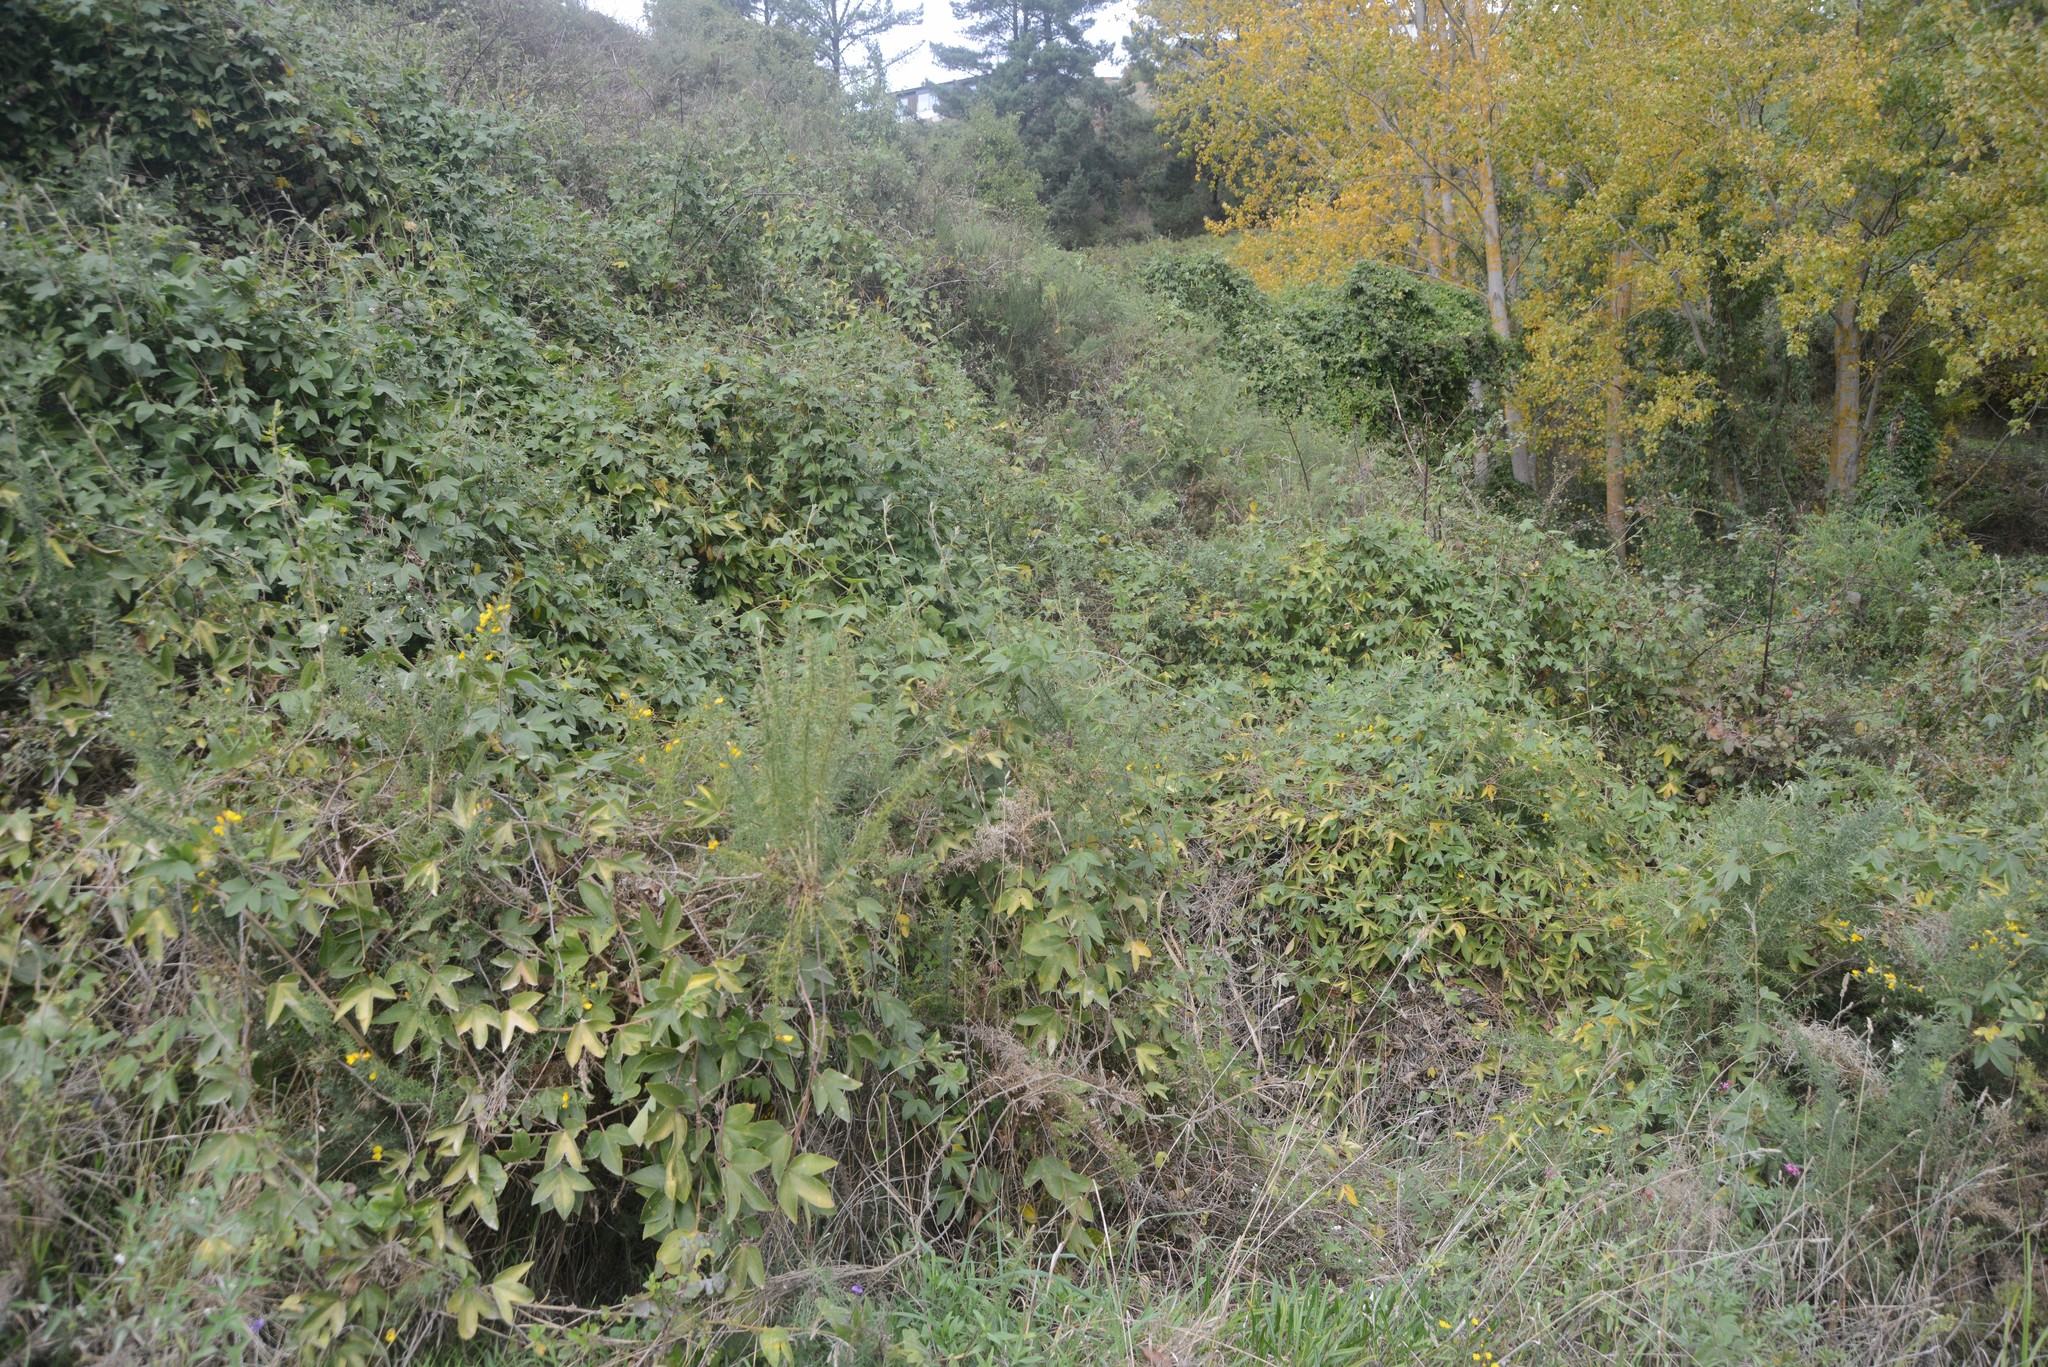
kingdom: Plantae
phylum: Tracheophyta
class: Magnoliopsida
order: Malpighiales
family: Passifloraceae
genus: Passiflora
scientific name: Passiflora tripartita
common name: Banana poka
